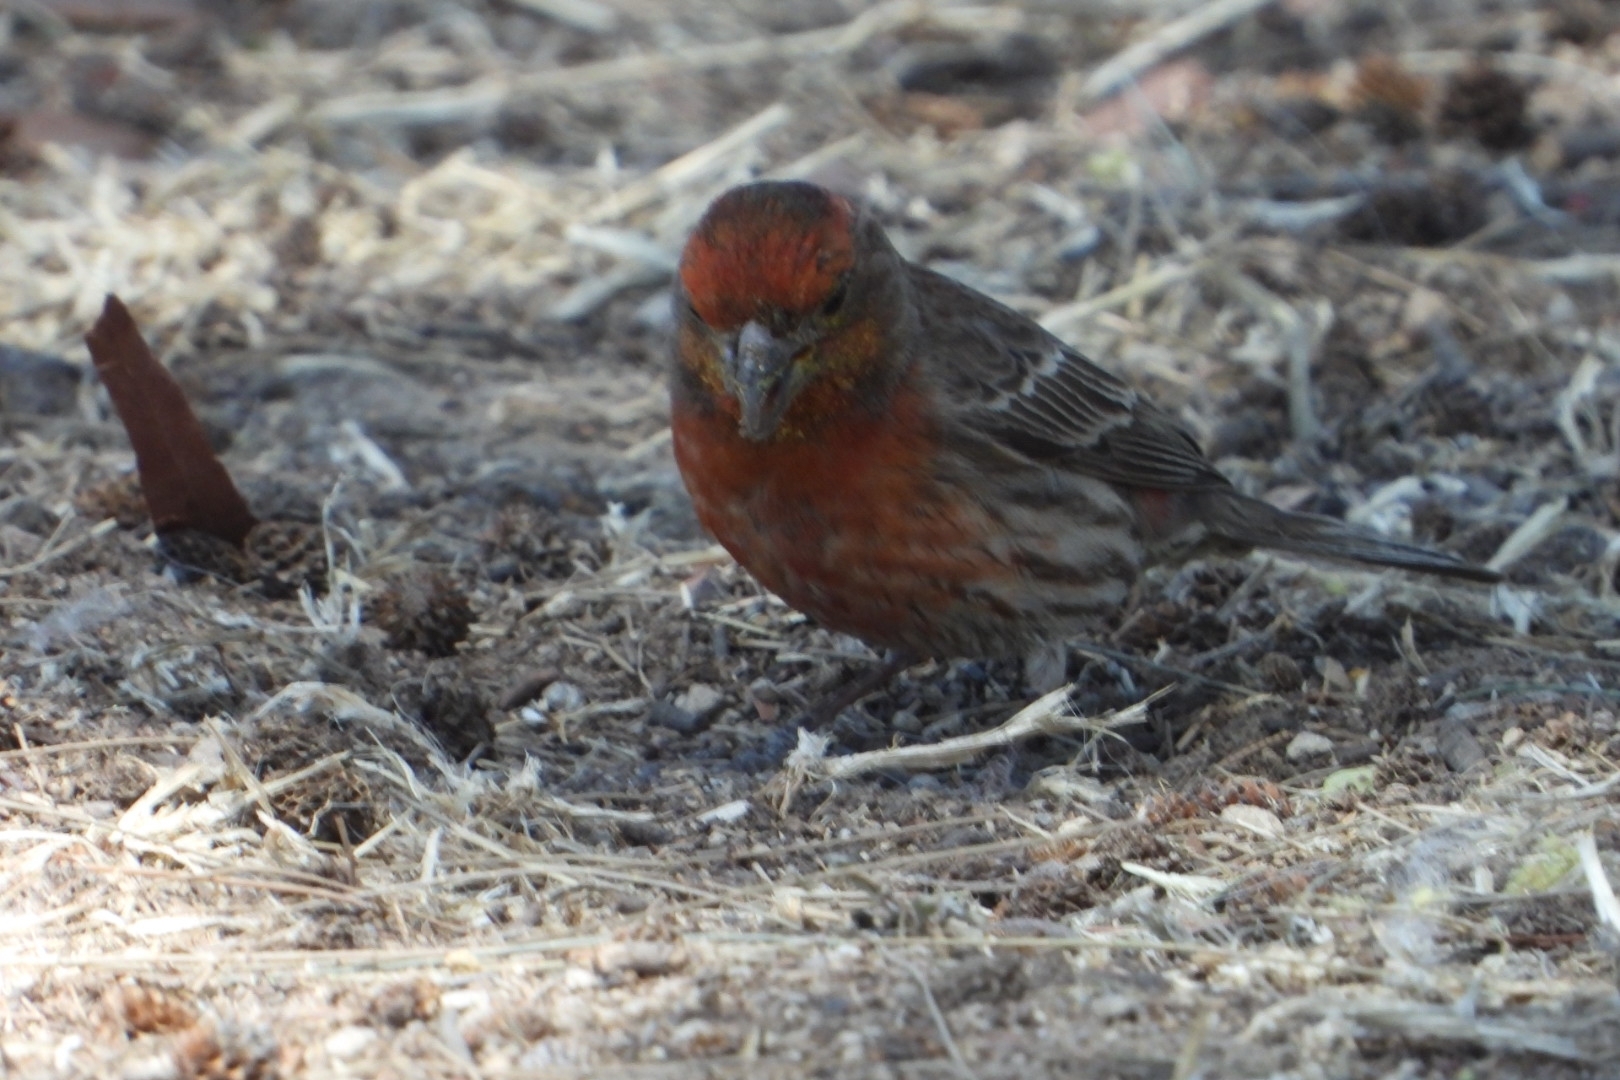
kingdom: Animalia
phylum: Chordata
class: Aves
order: Passeriformes
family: Fringillidae
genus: Haemorhous
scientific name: Haemorhous mexicanus
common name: House finch
